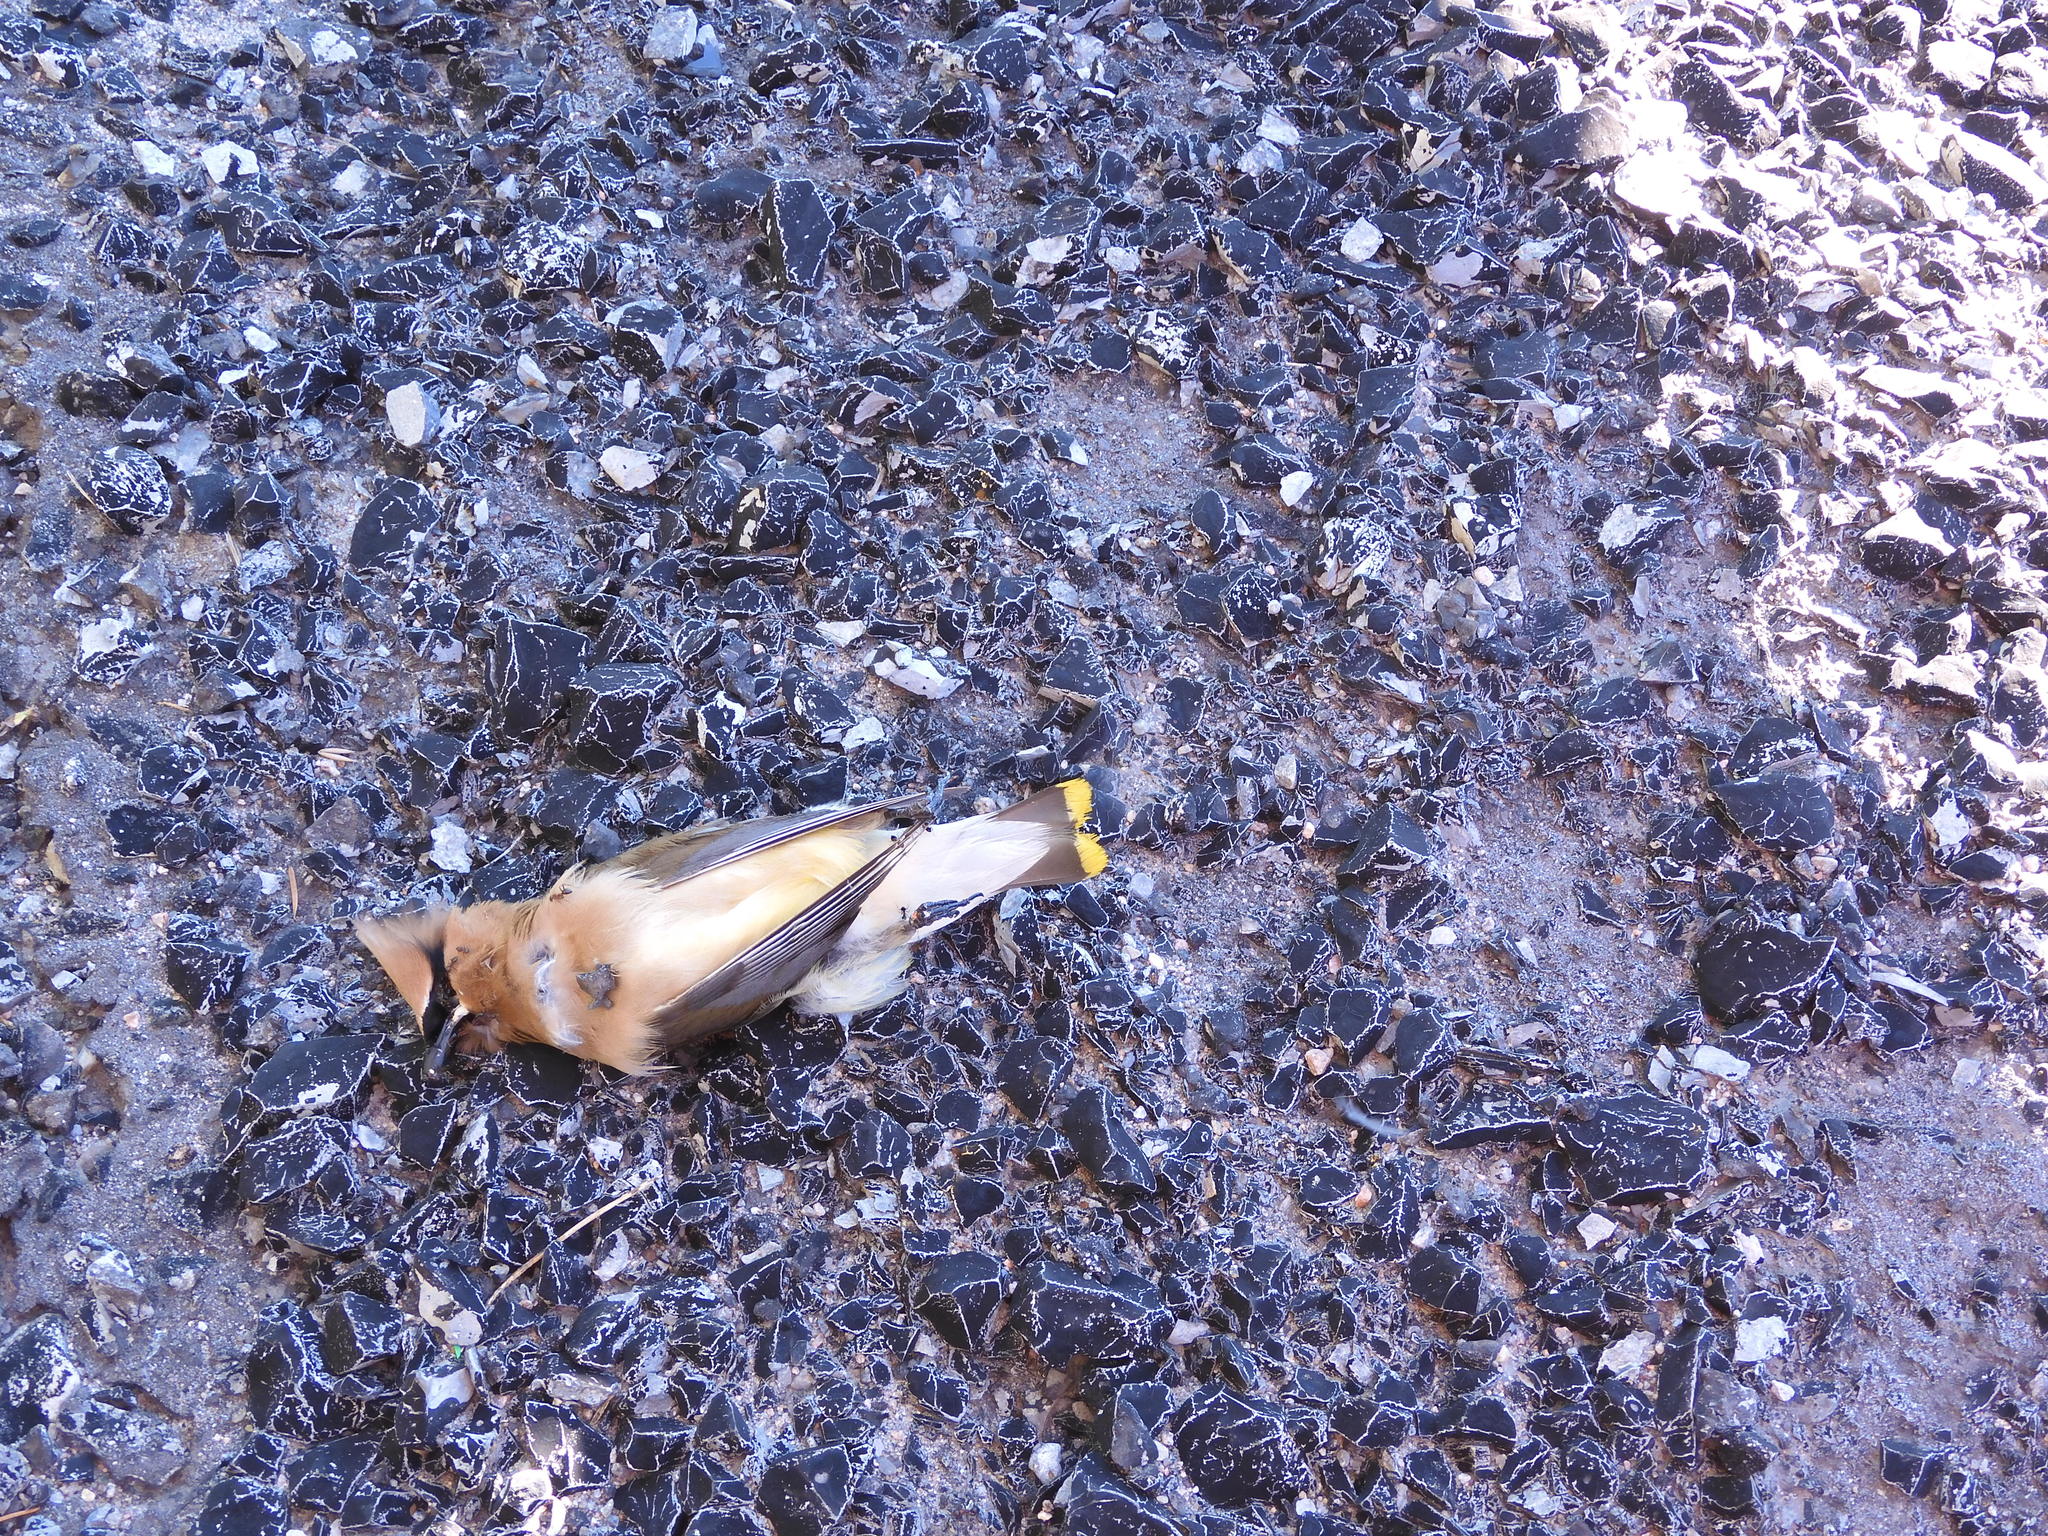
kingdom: Animalia
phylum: Chordata
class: Aves
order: Passeriformes
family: Bombycillidae
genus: Bombycilla
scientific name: Bombycilla cedrorum
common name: Cedar waxwing
